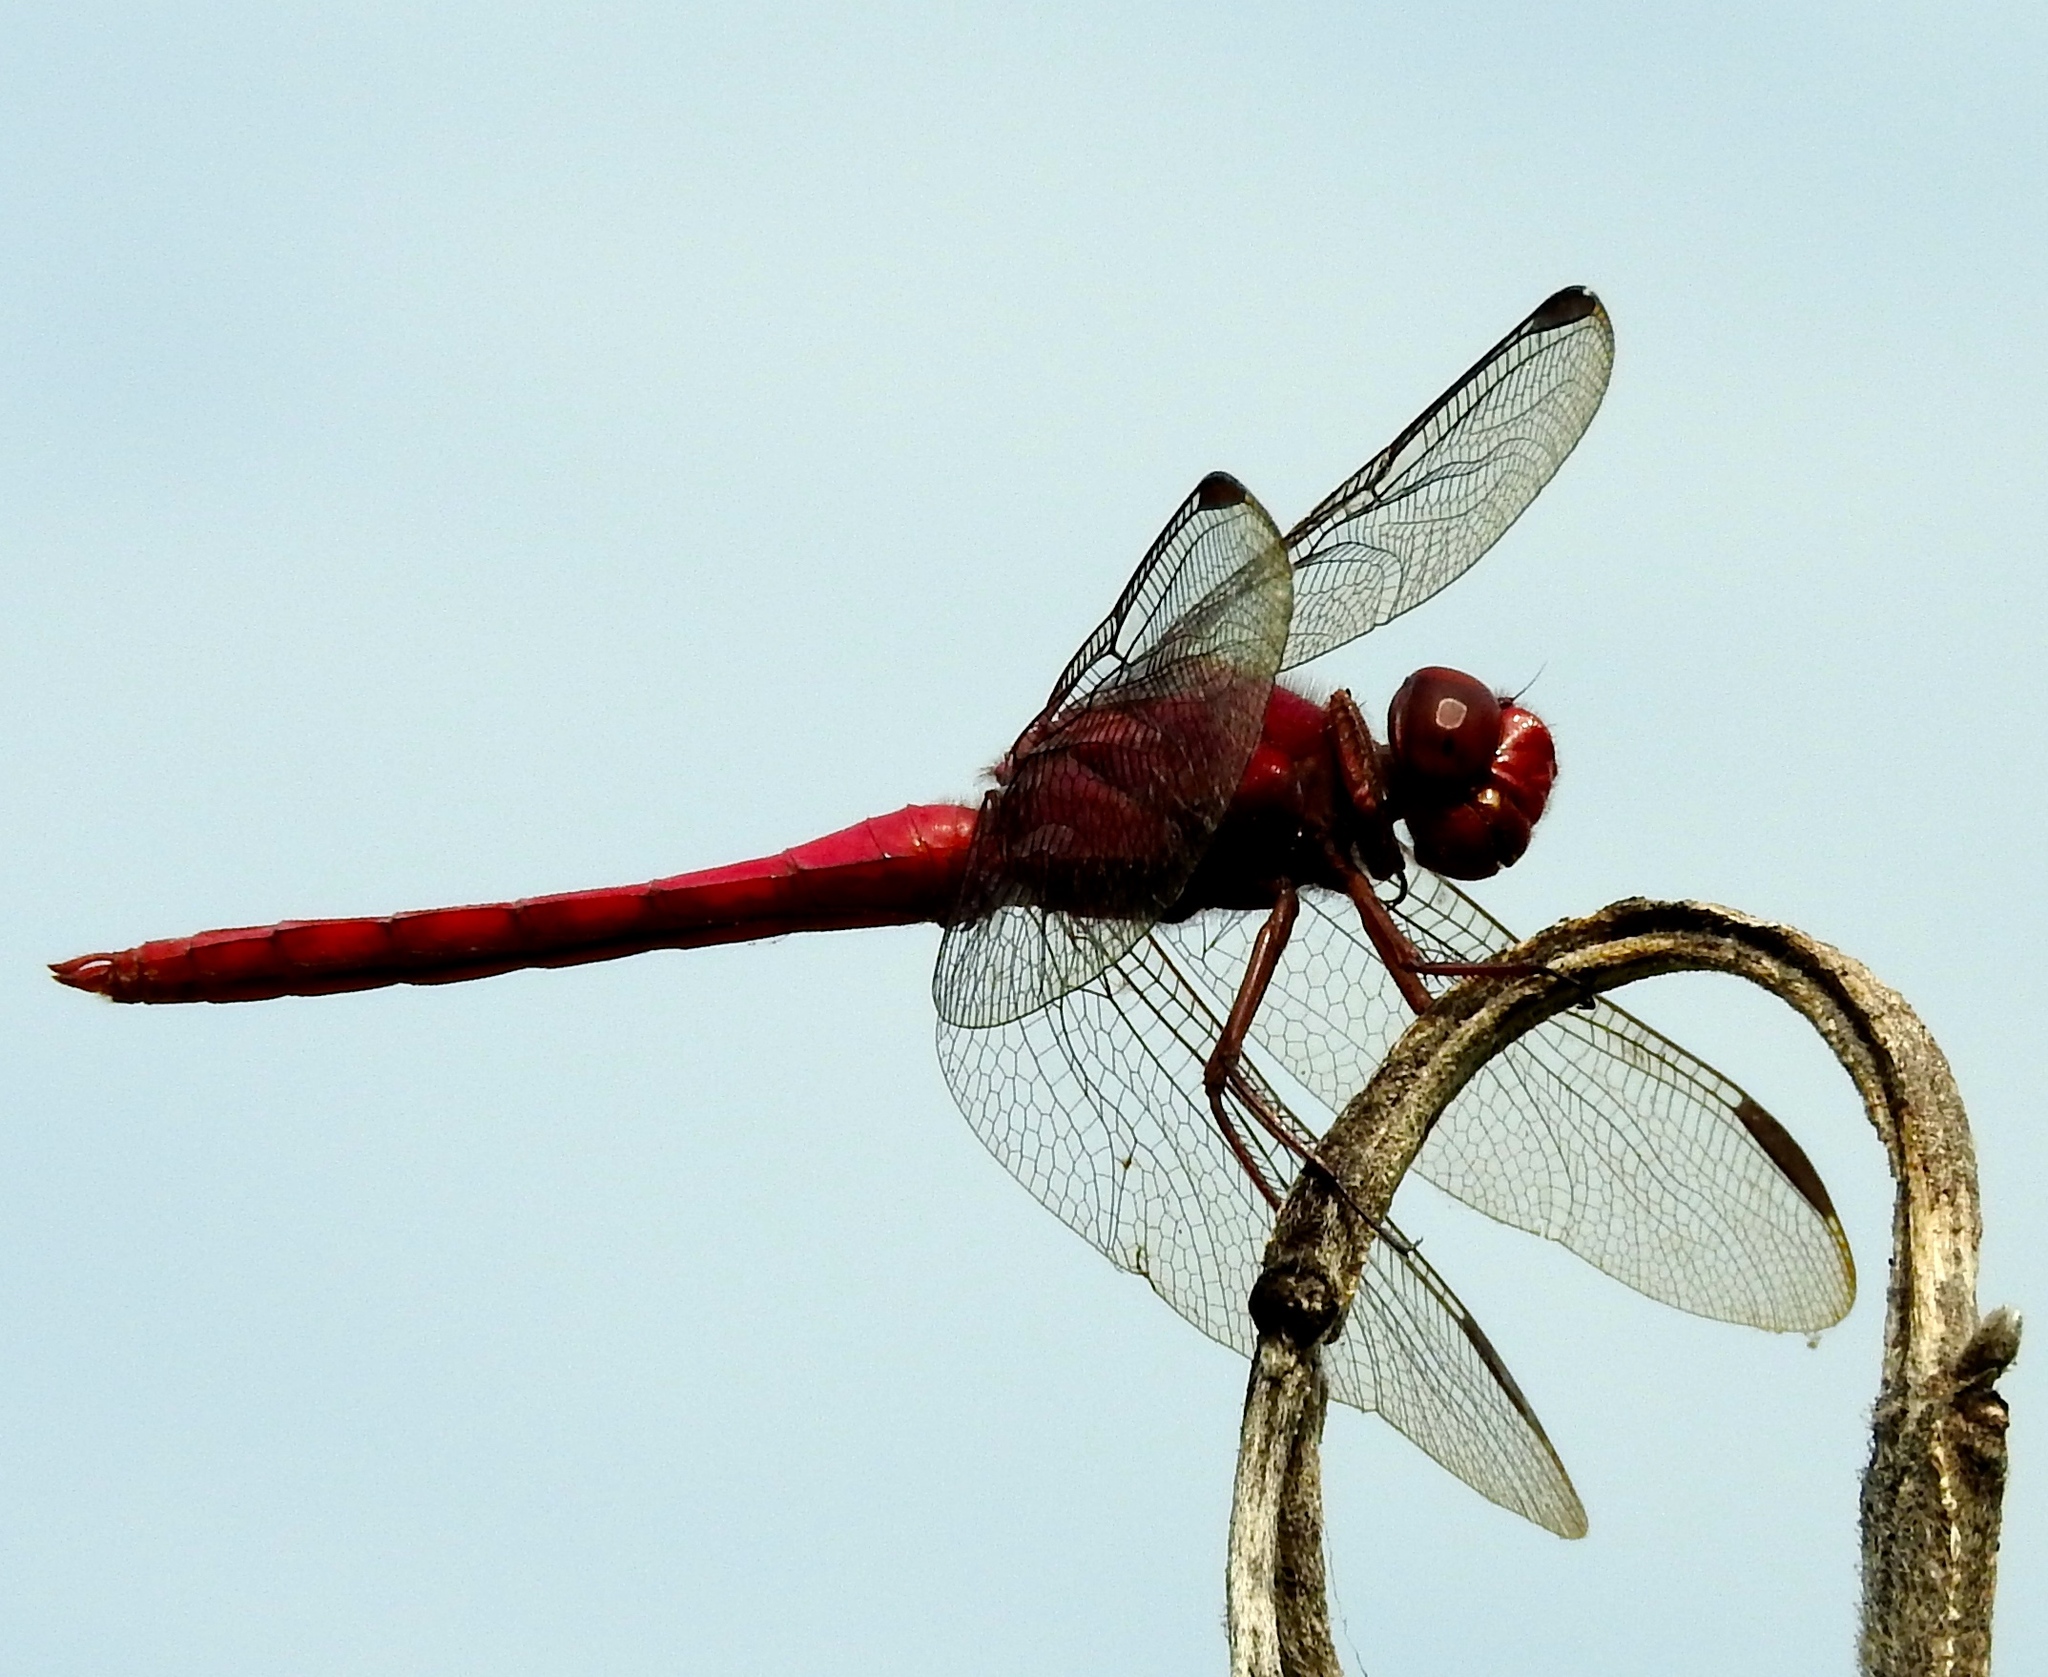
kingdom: Animalia
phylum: Arthropoda
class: Insecta
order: Odonata
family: Libellulidae
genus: Orthemis
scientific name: Orthemis schmidti
